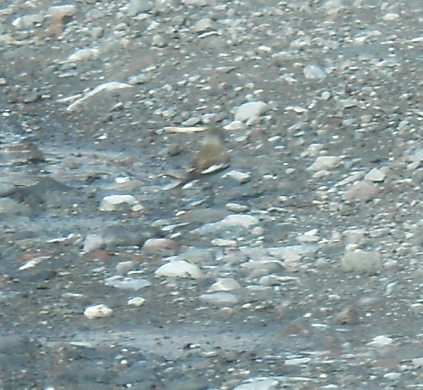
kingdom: Animalia
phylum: Chordata
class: Aves
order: Passeriformes
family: Passeridae
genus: Montifringilla
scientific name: Montifringilla nivalis
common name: White-winged snowfinch
